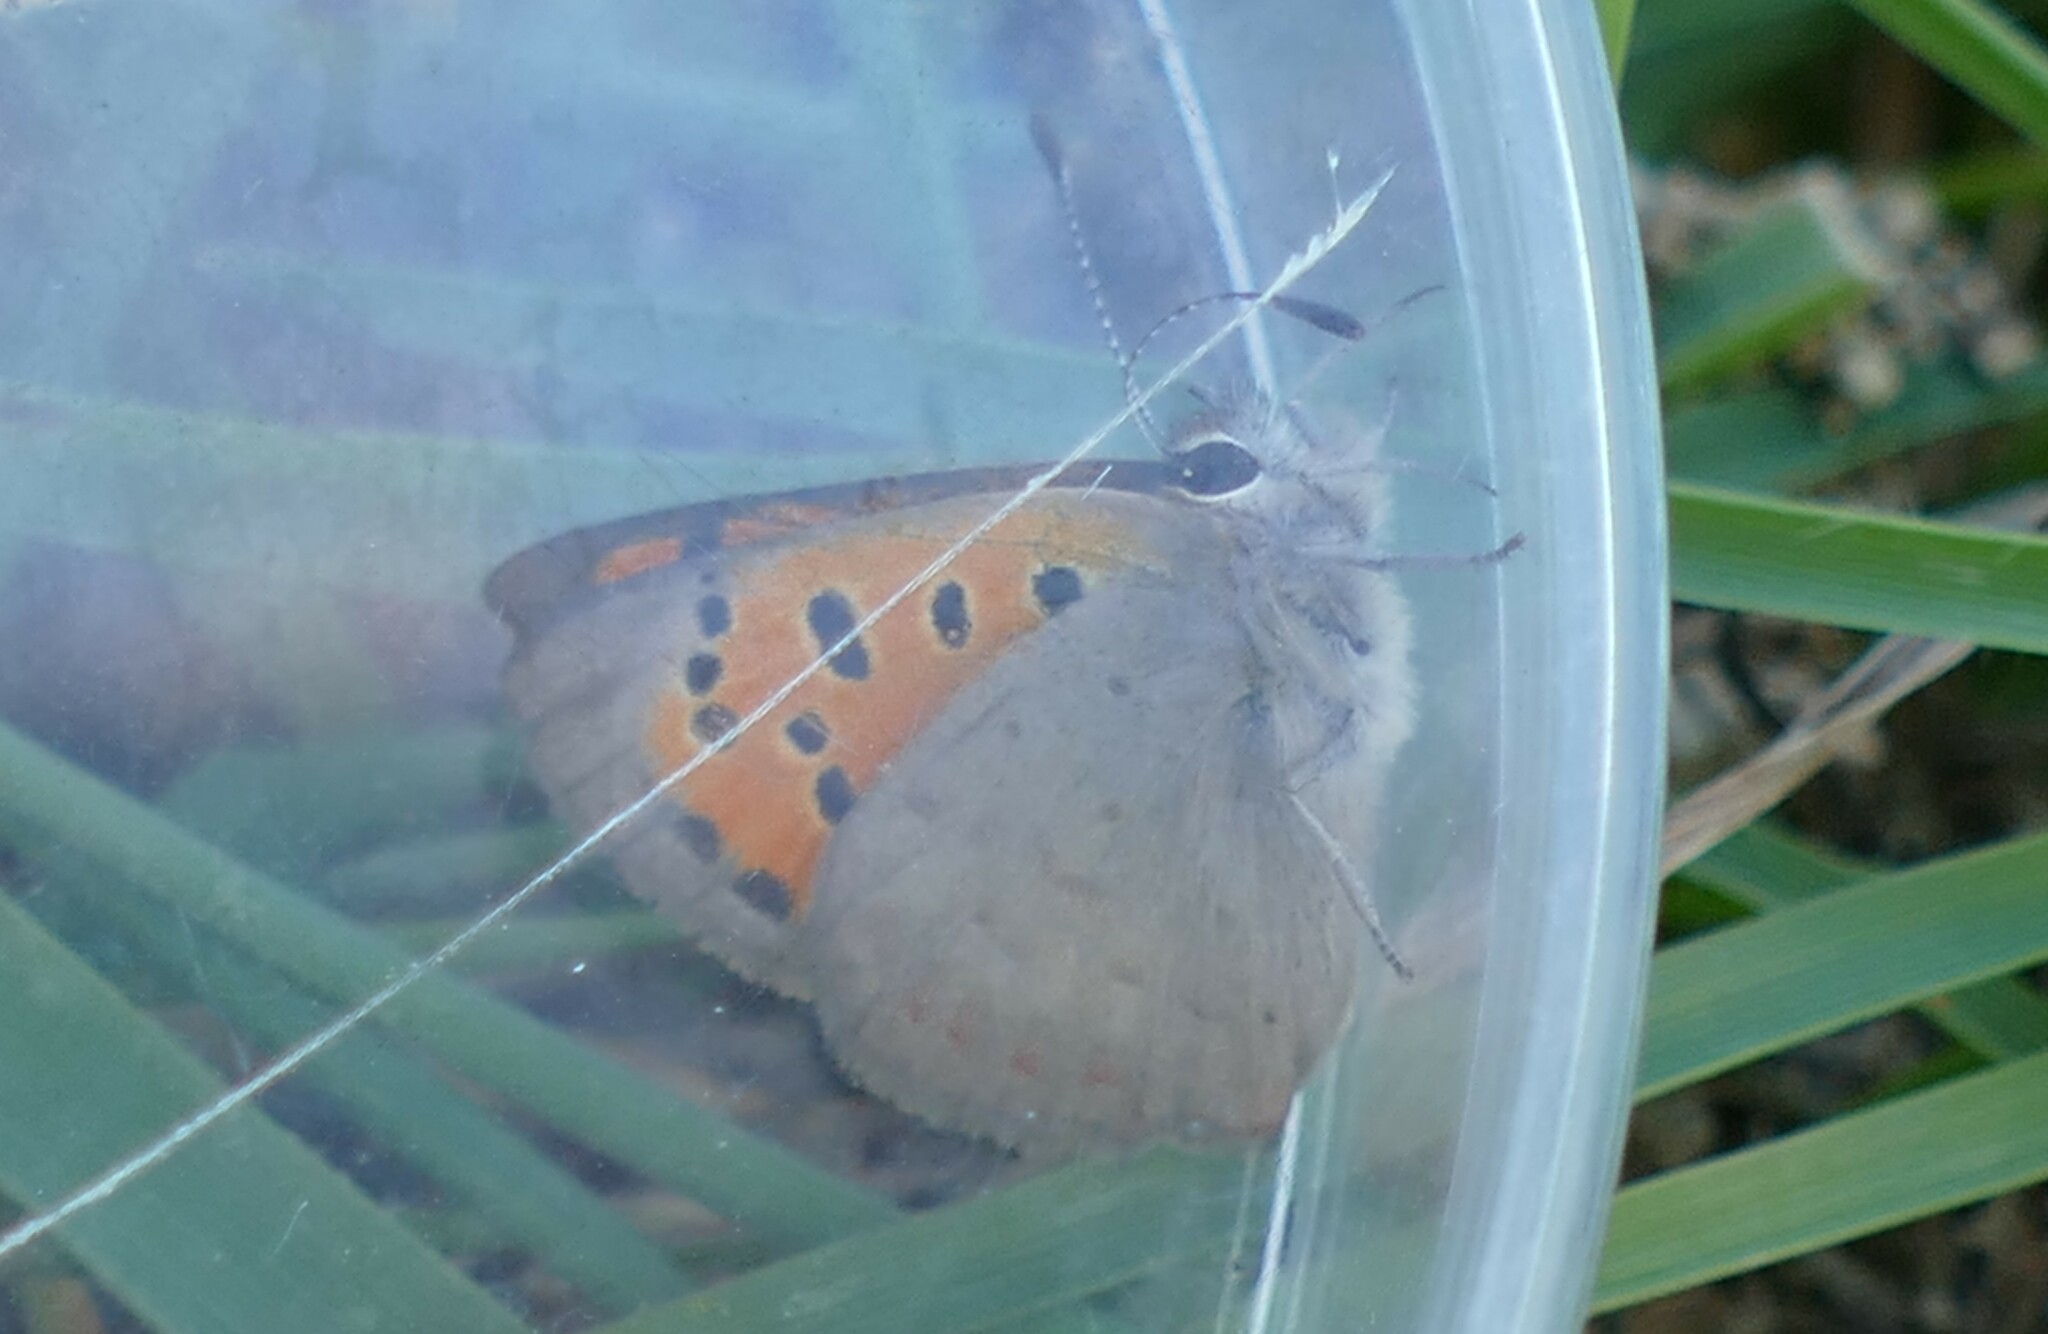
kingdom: Animalia
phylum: Arthropoda
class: Insecta
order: Lepidoptera
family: Lycaenidae
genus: Lycaena
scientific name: Lycaena phlaeas
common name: Small copper
